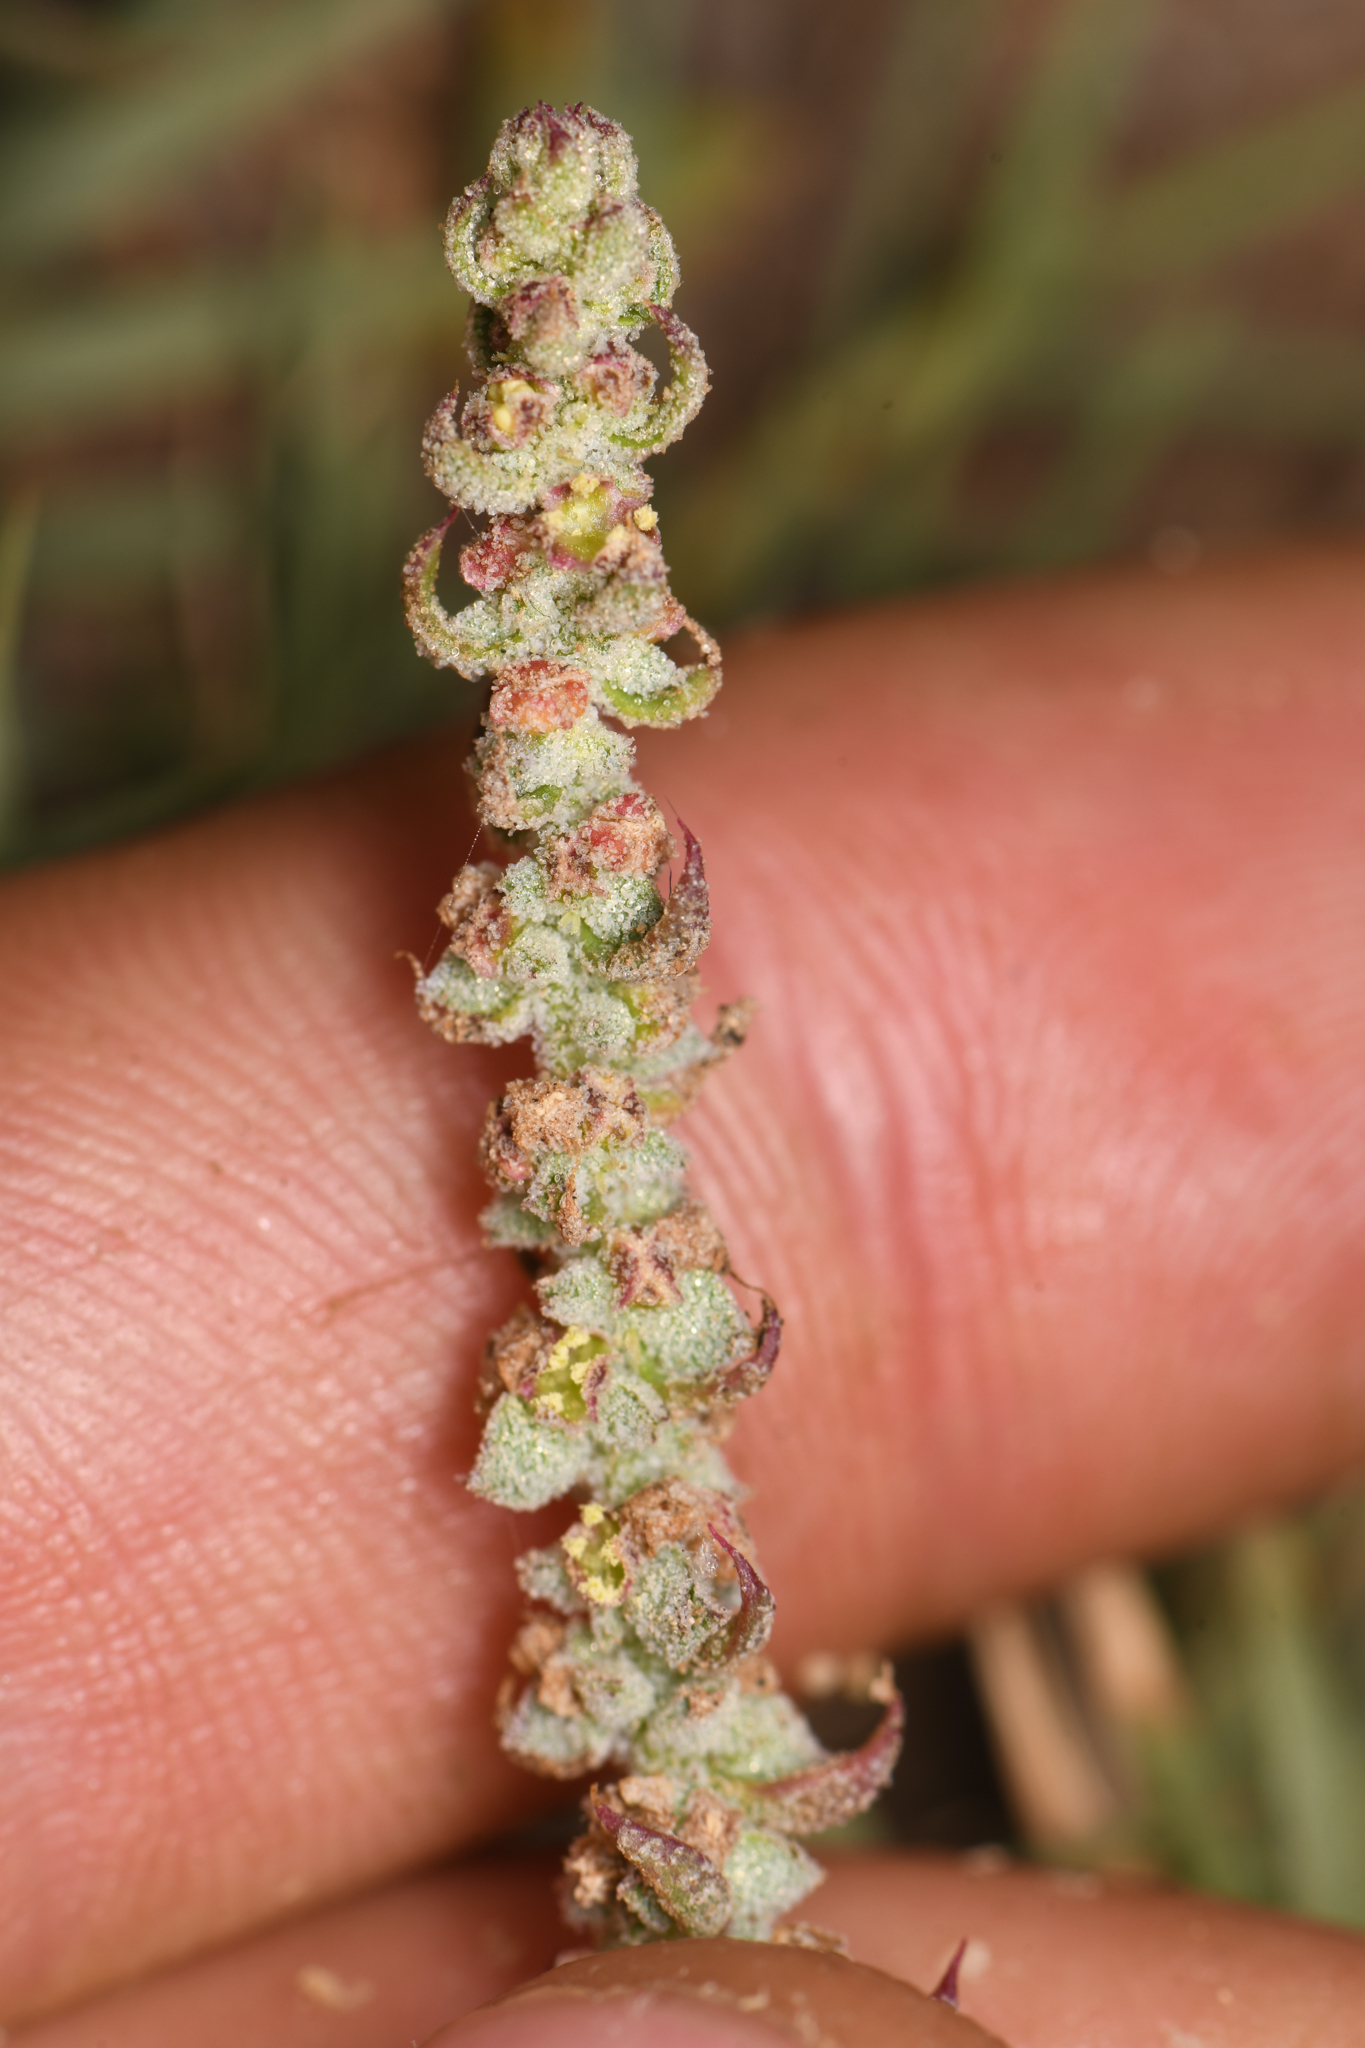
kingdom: Plantae
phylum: Tracheophyta
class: Magnoliopsida
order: Caryophyllales
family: Amaranthaceae
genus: Extriplex
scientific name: Extriplex californica
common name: California saltbush
